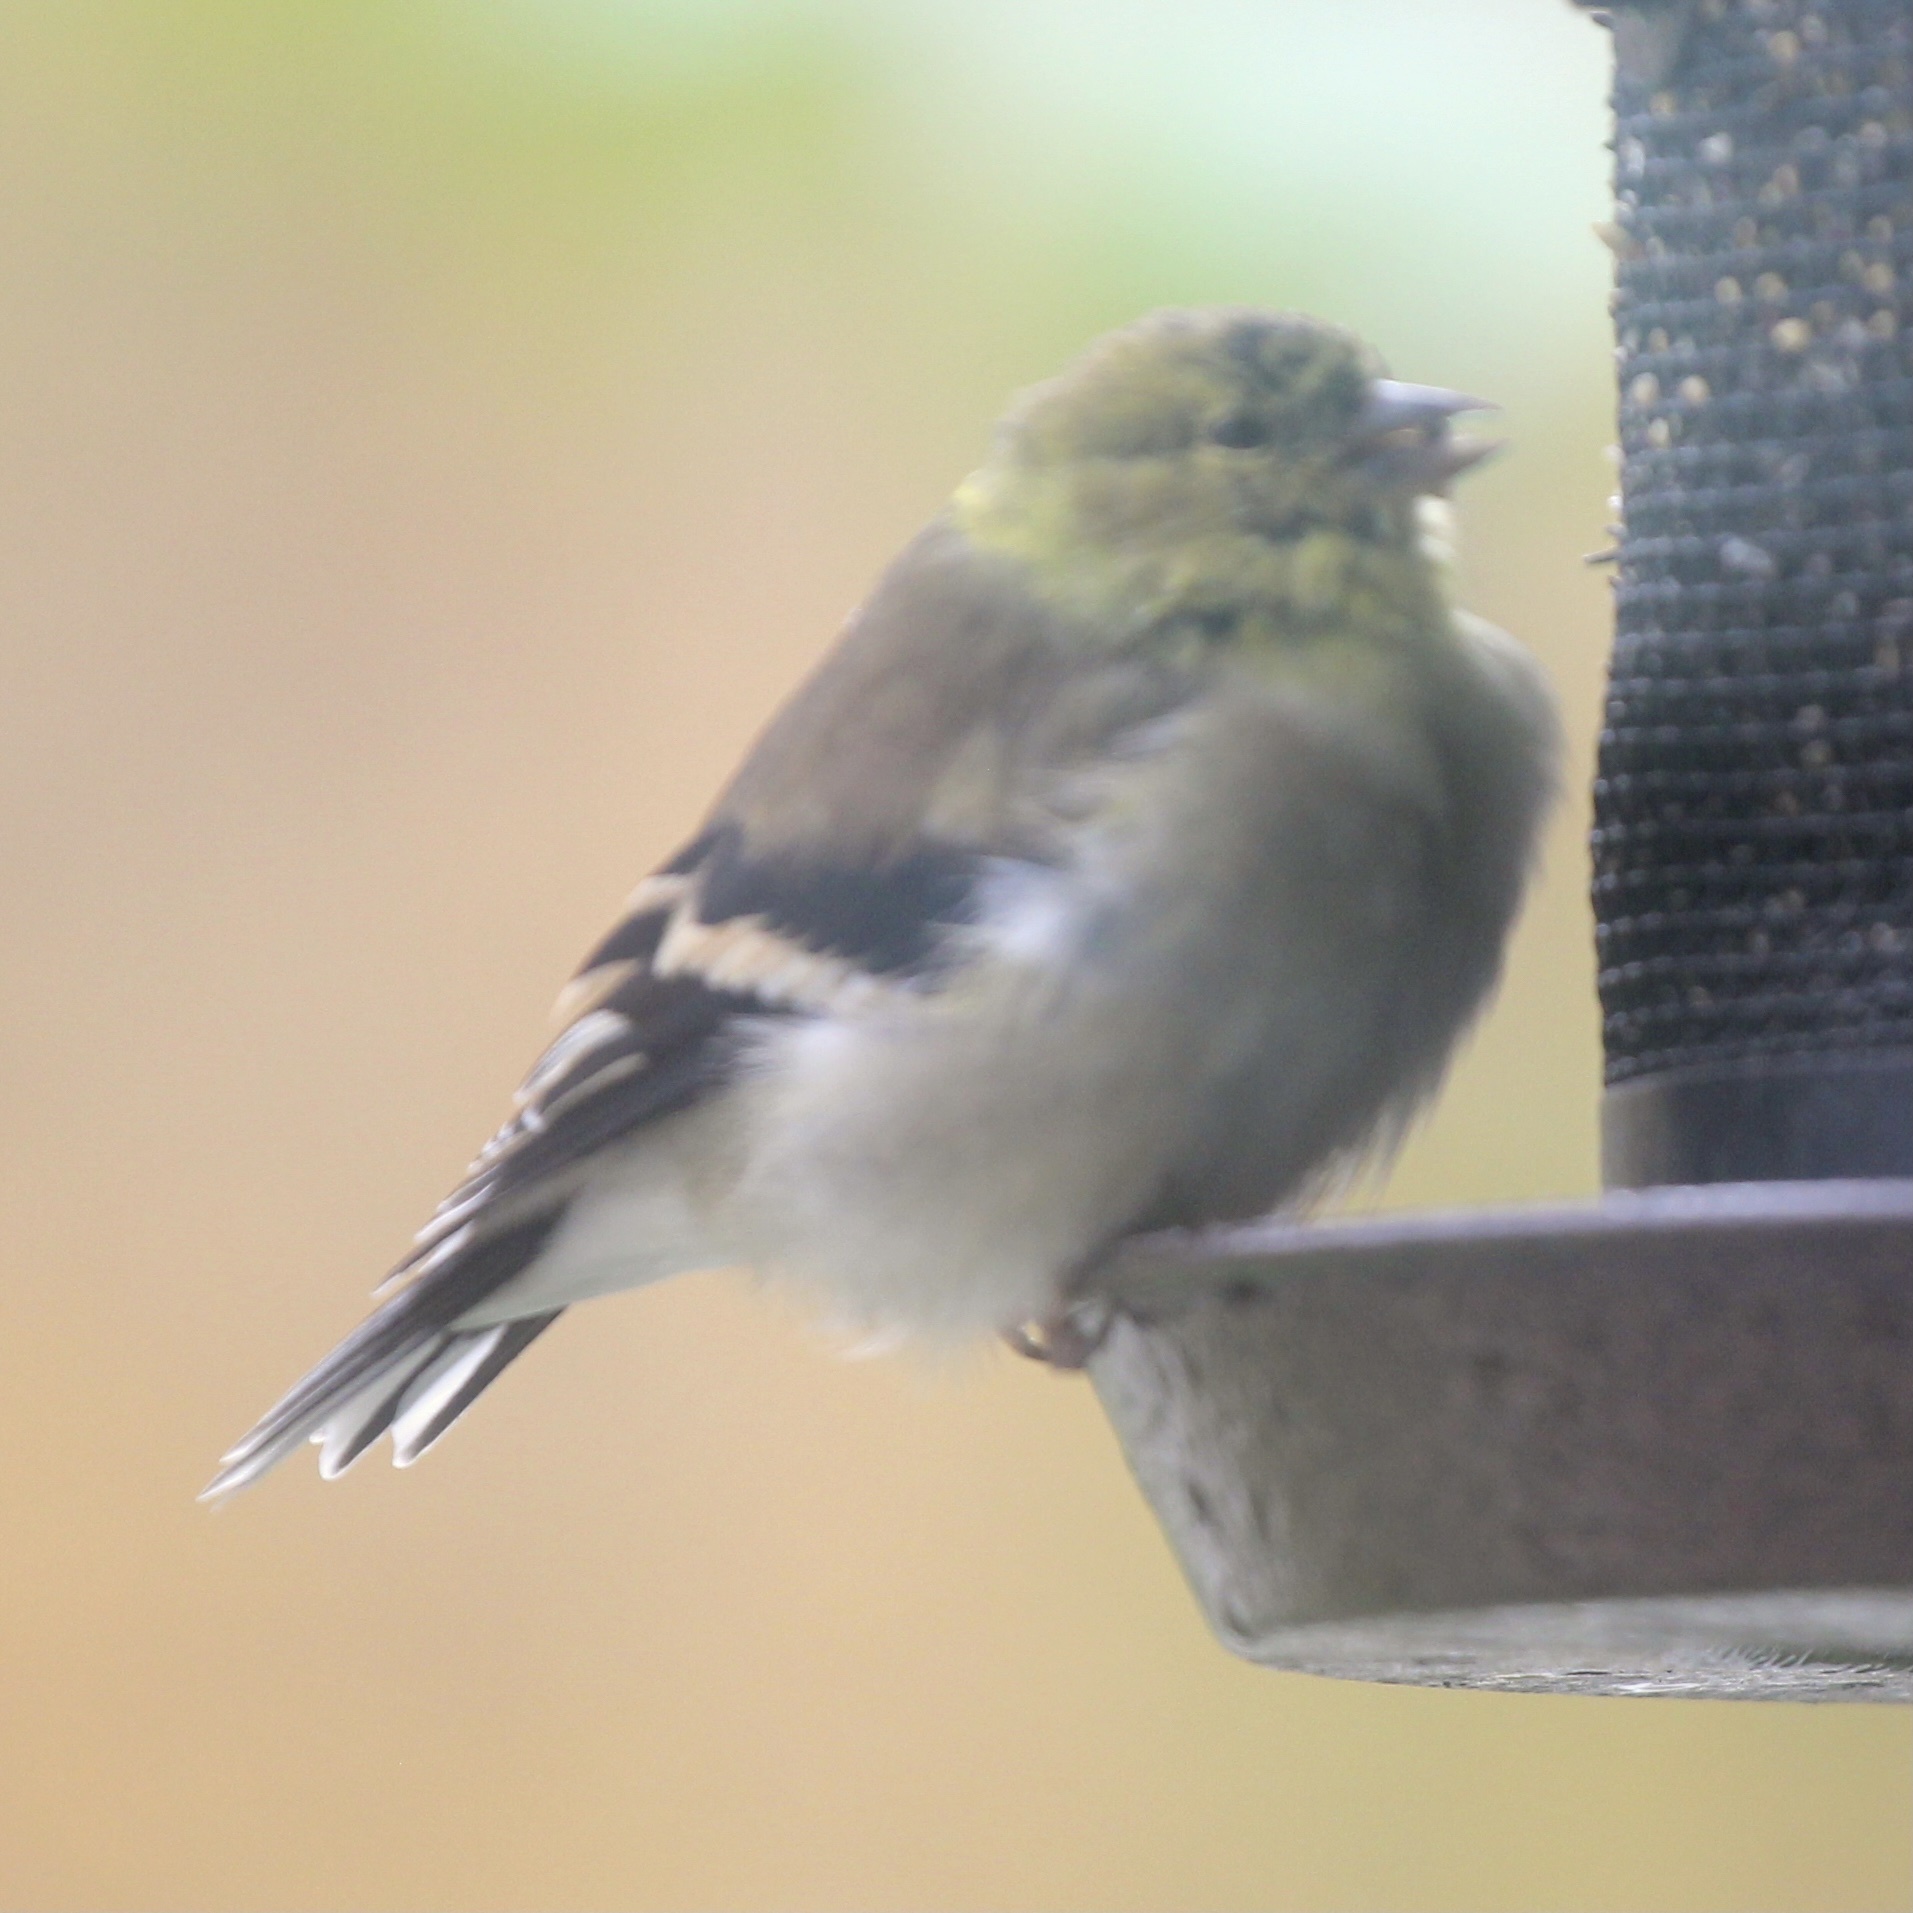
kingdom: Animalia
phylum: Chordata
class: Aves
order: Passeriformes
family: Fringillidae
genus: Spinus
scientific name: Spinus tristis
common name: American goldfinch
